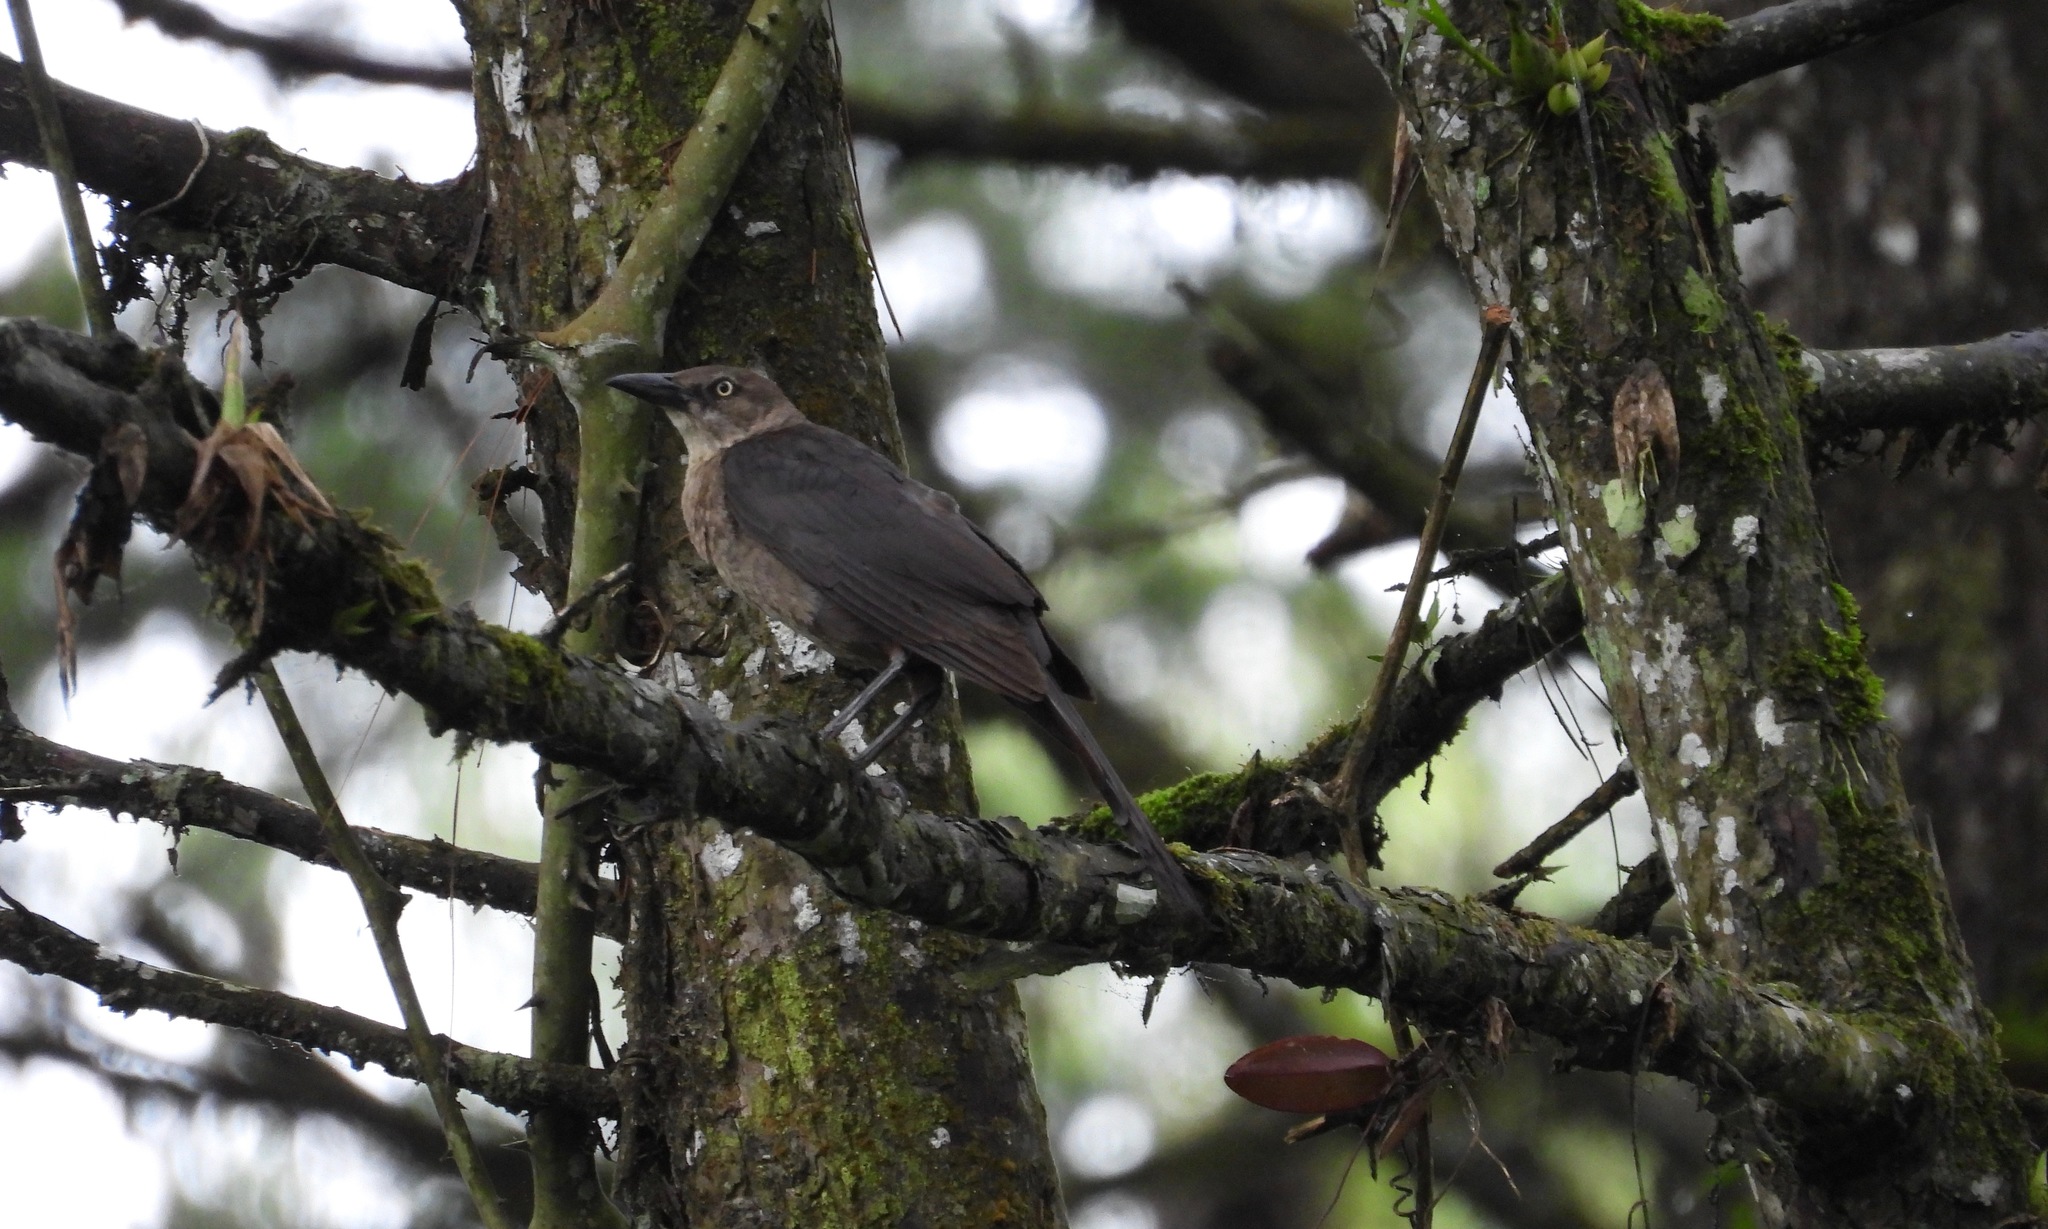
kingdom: Animalia
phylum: Chordata
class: Aves
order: Passeriformes
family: Icteridae
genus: Quiscalus
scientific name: Quiscalus mexicanus
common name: Great-tailed grackle
